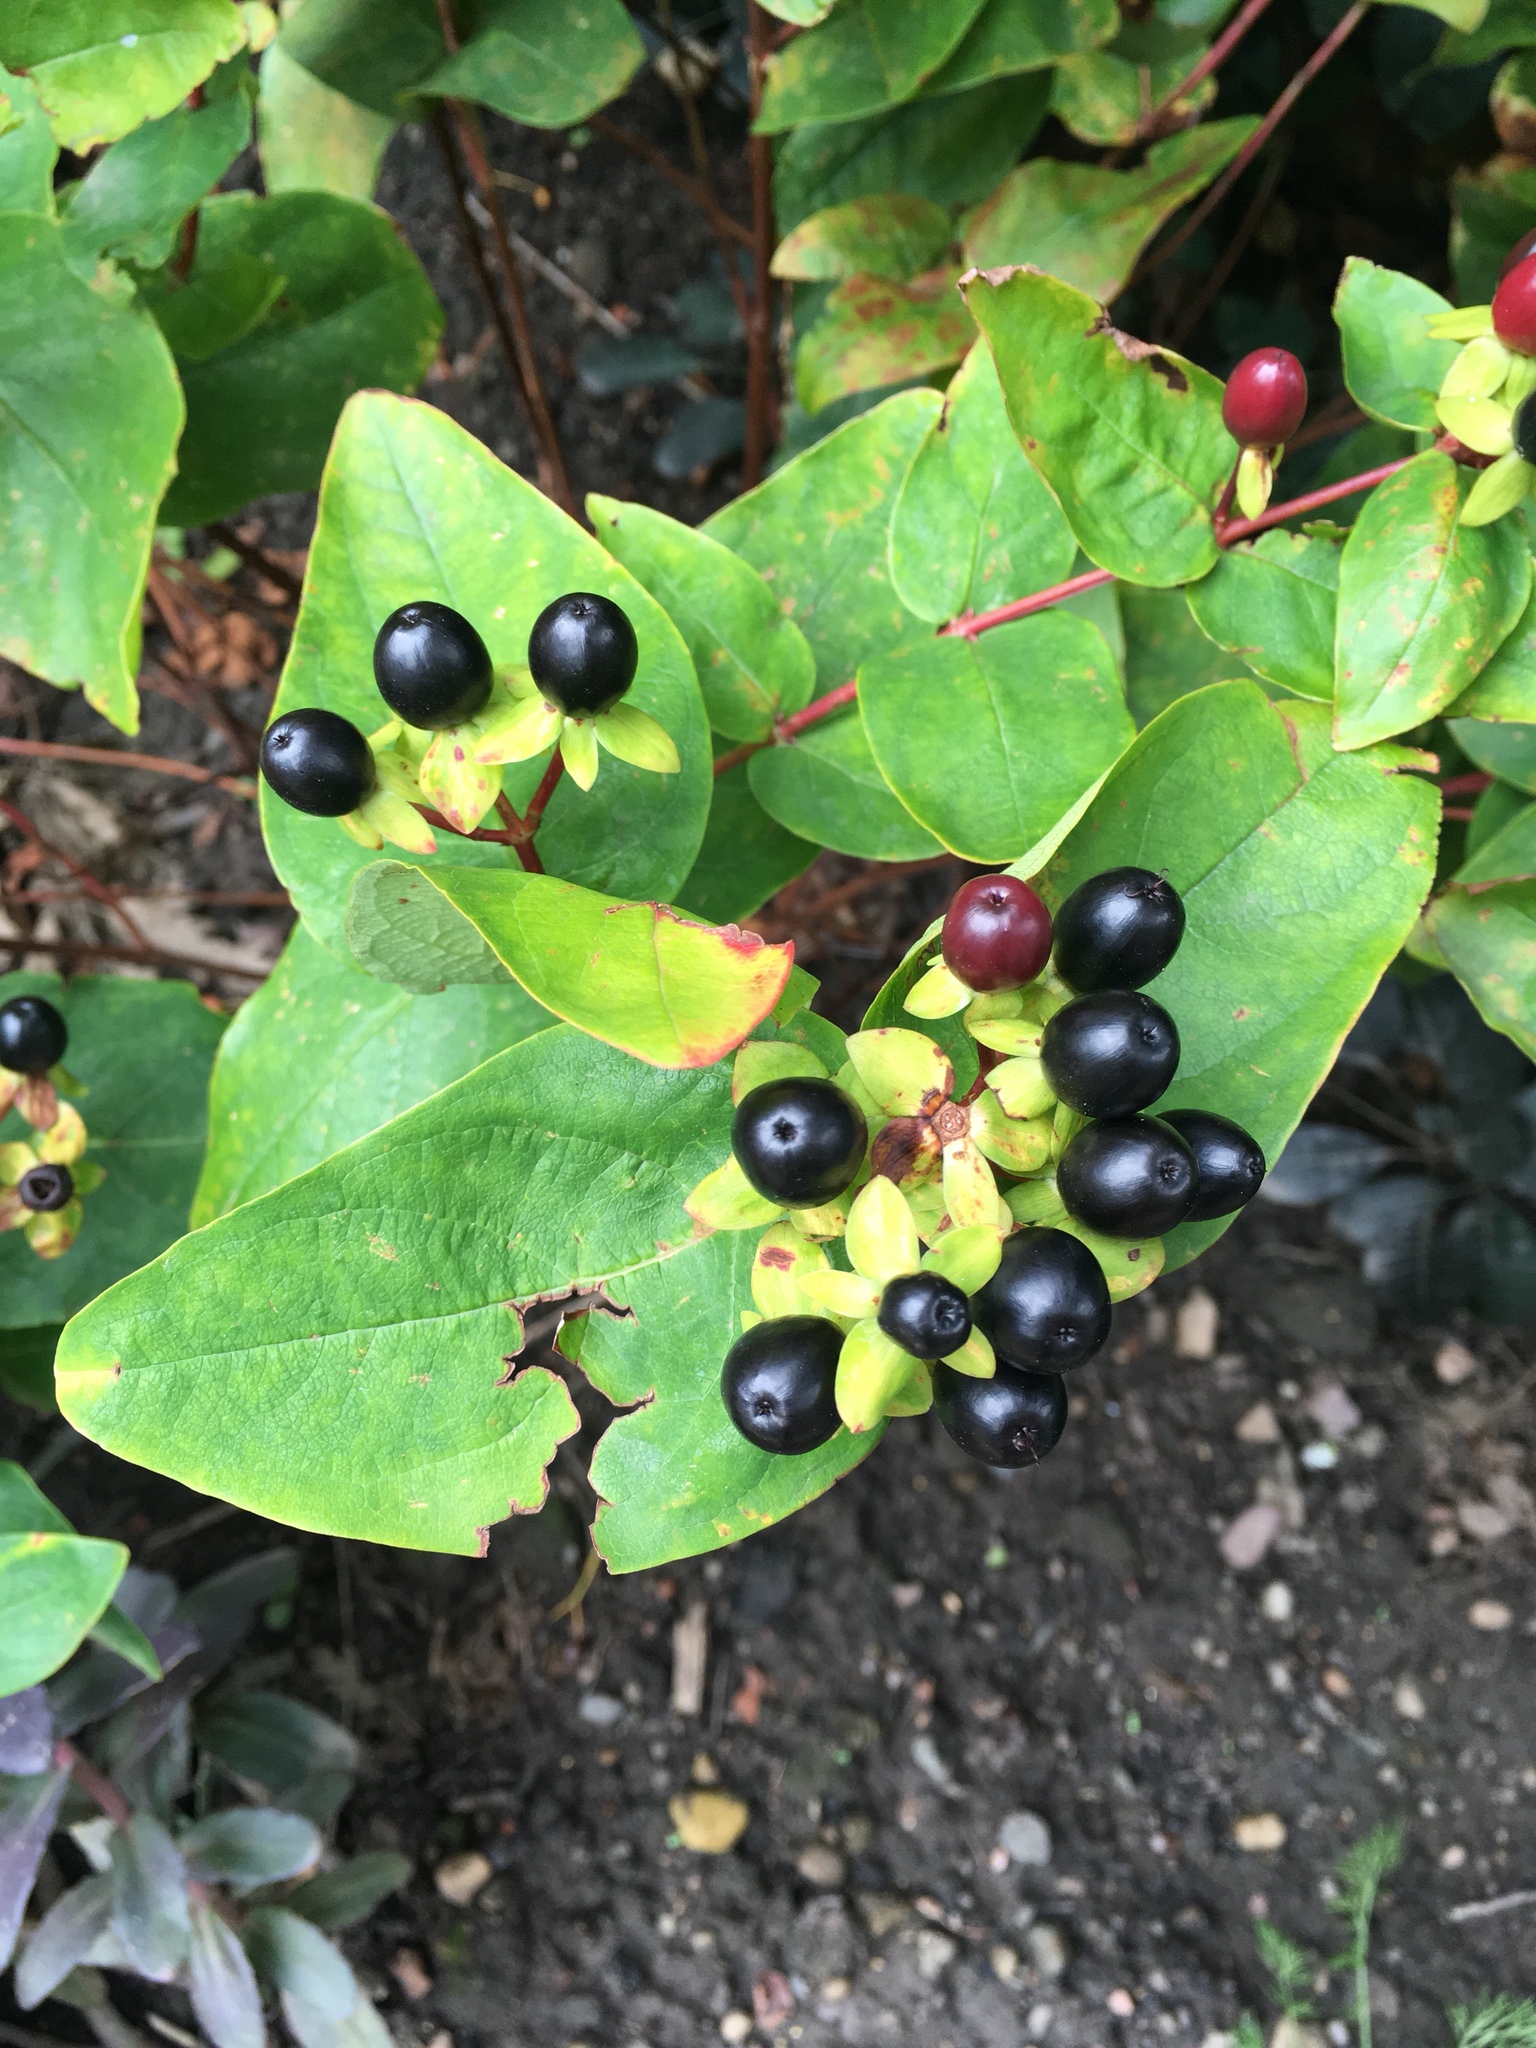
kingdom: Plantae
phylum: Tracheophyta
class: Magnoliopsida
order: Malpighiales
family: Hypericaceae
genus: Hypericum
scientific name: Hypericum androsaemum
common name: Sweet-amber
